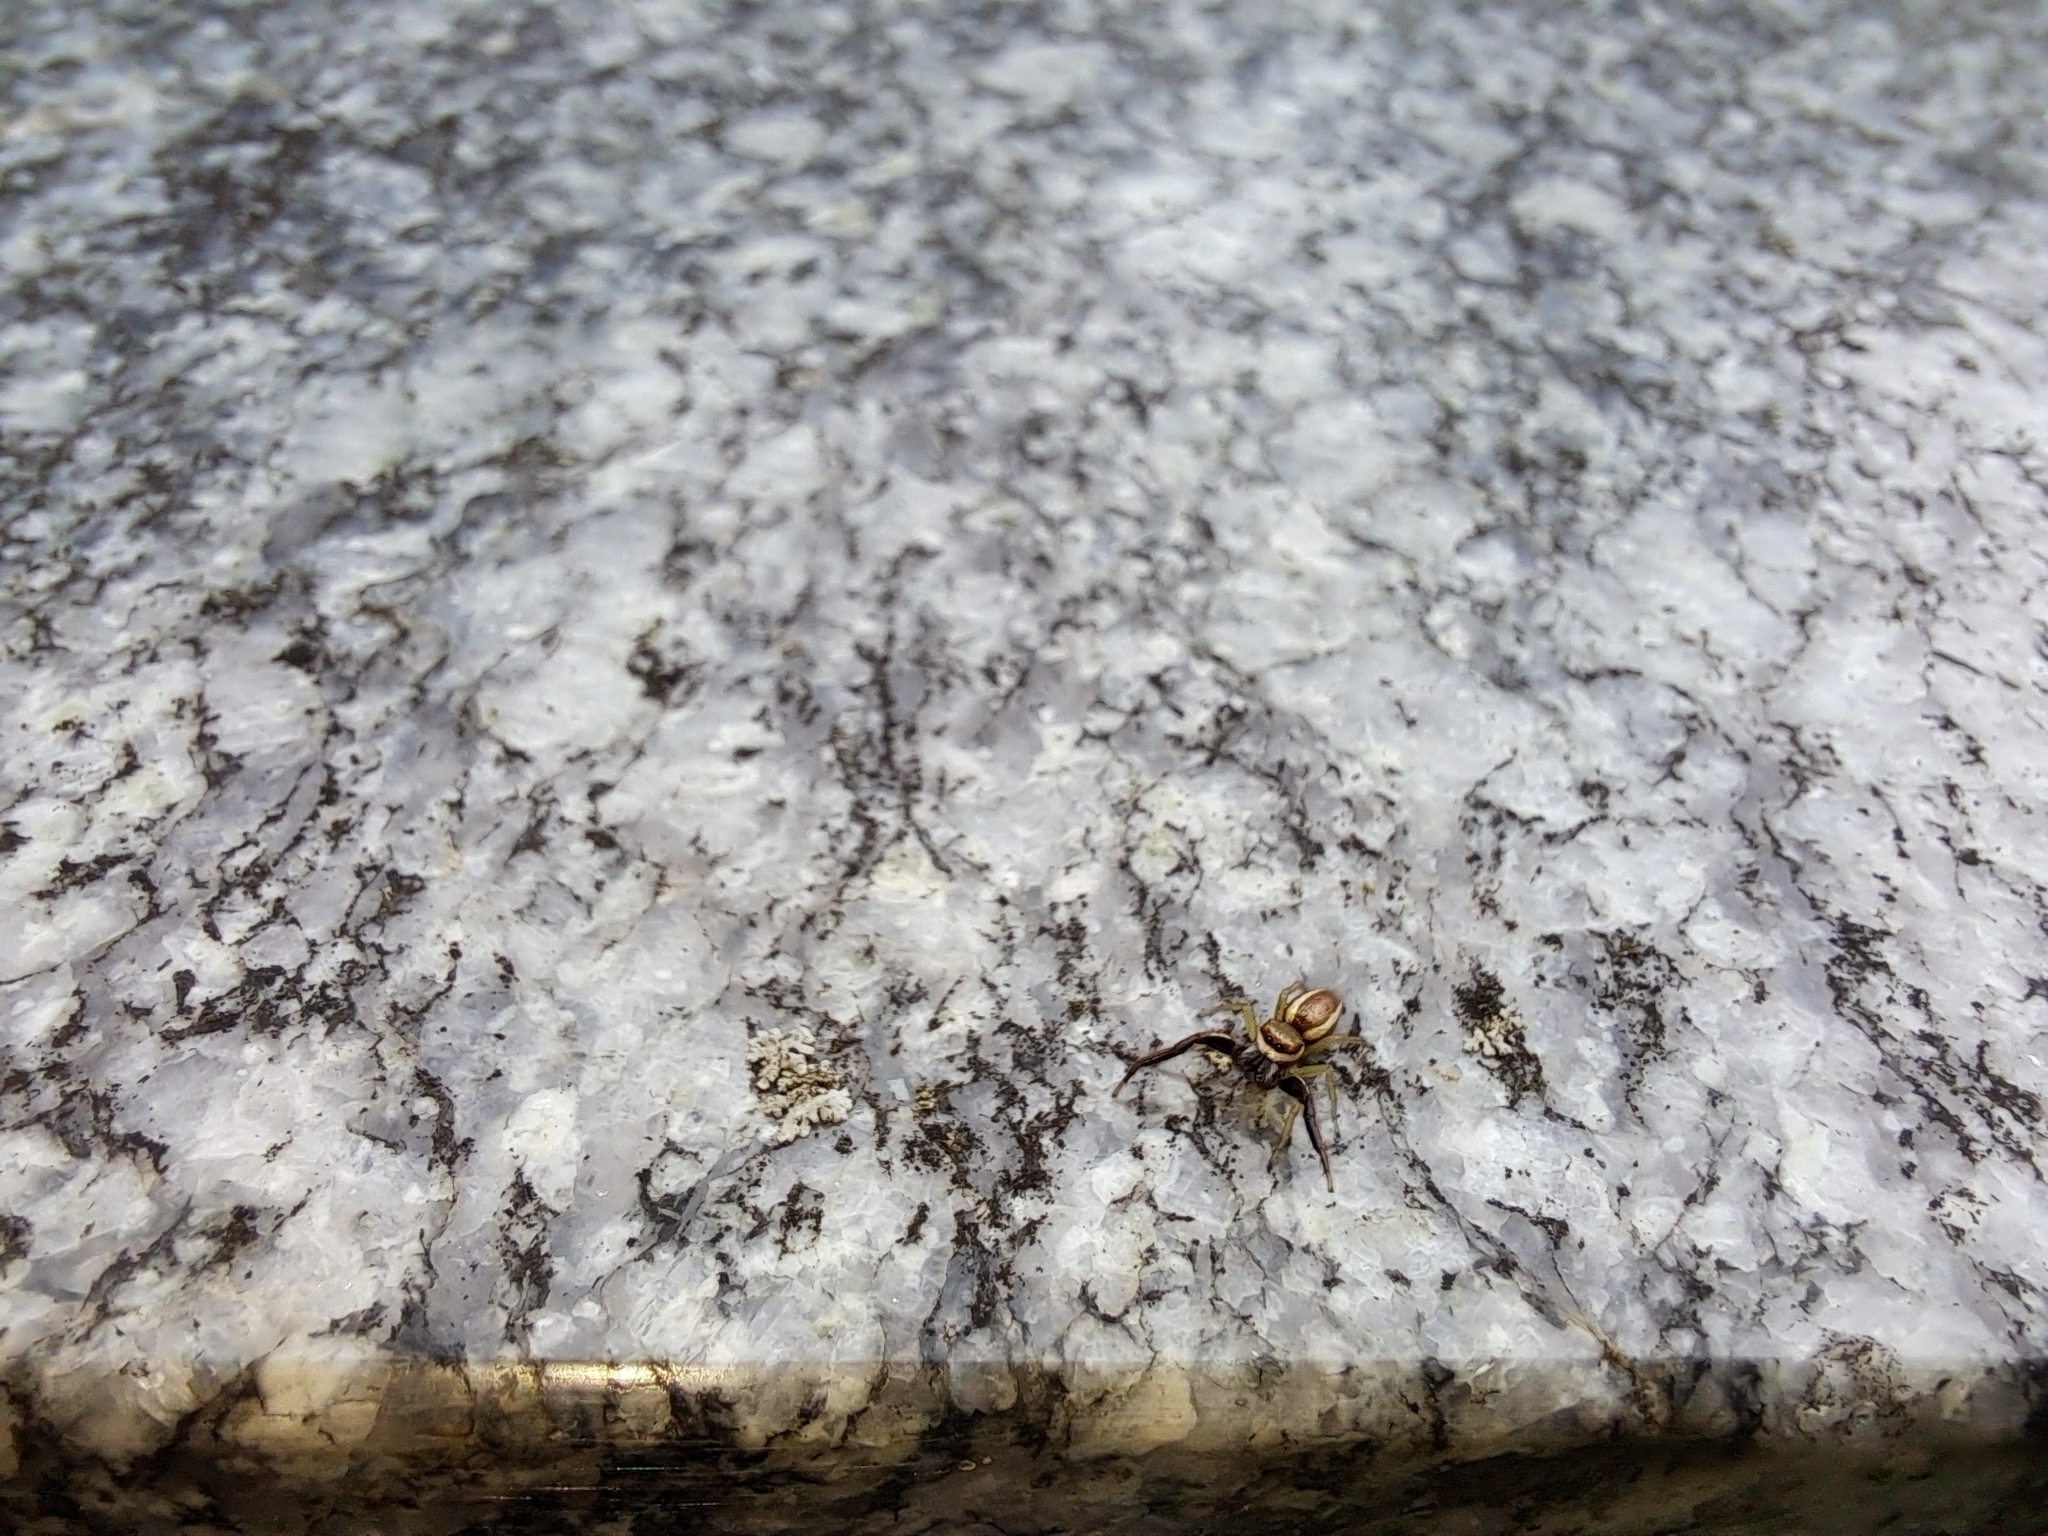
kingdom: Animalia
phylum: Arthropoda
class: Arachnida
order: Araneae
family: Salticidae
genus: Hentzia
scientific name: Hentzia palmarum
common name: Common hentz jumping spider
